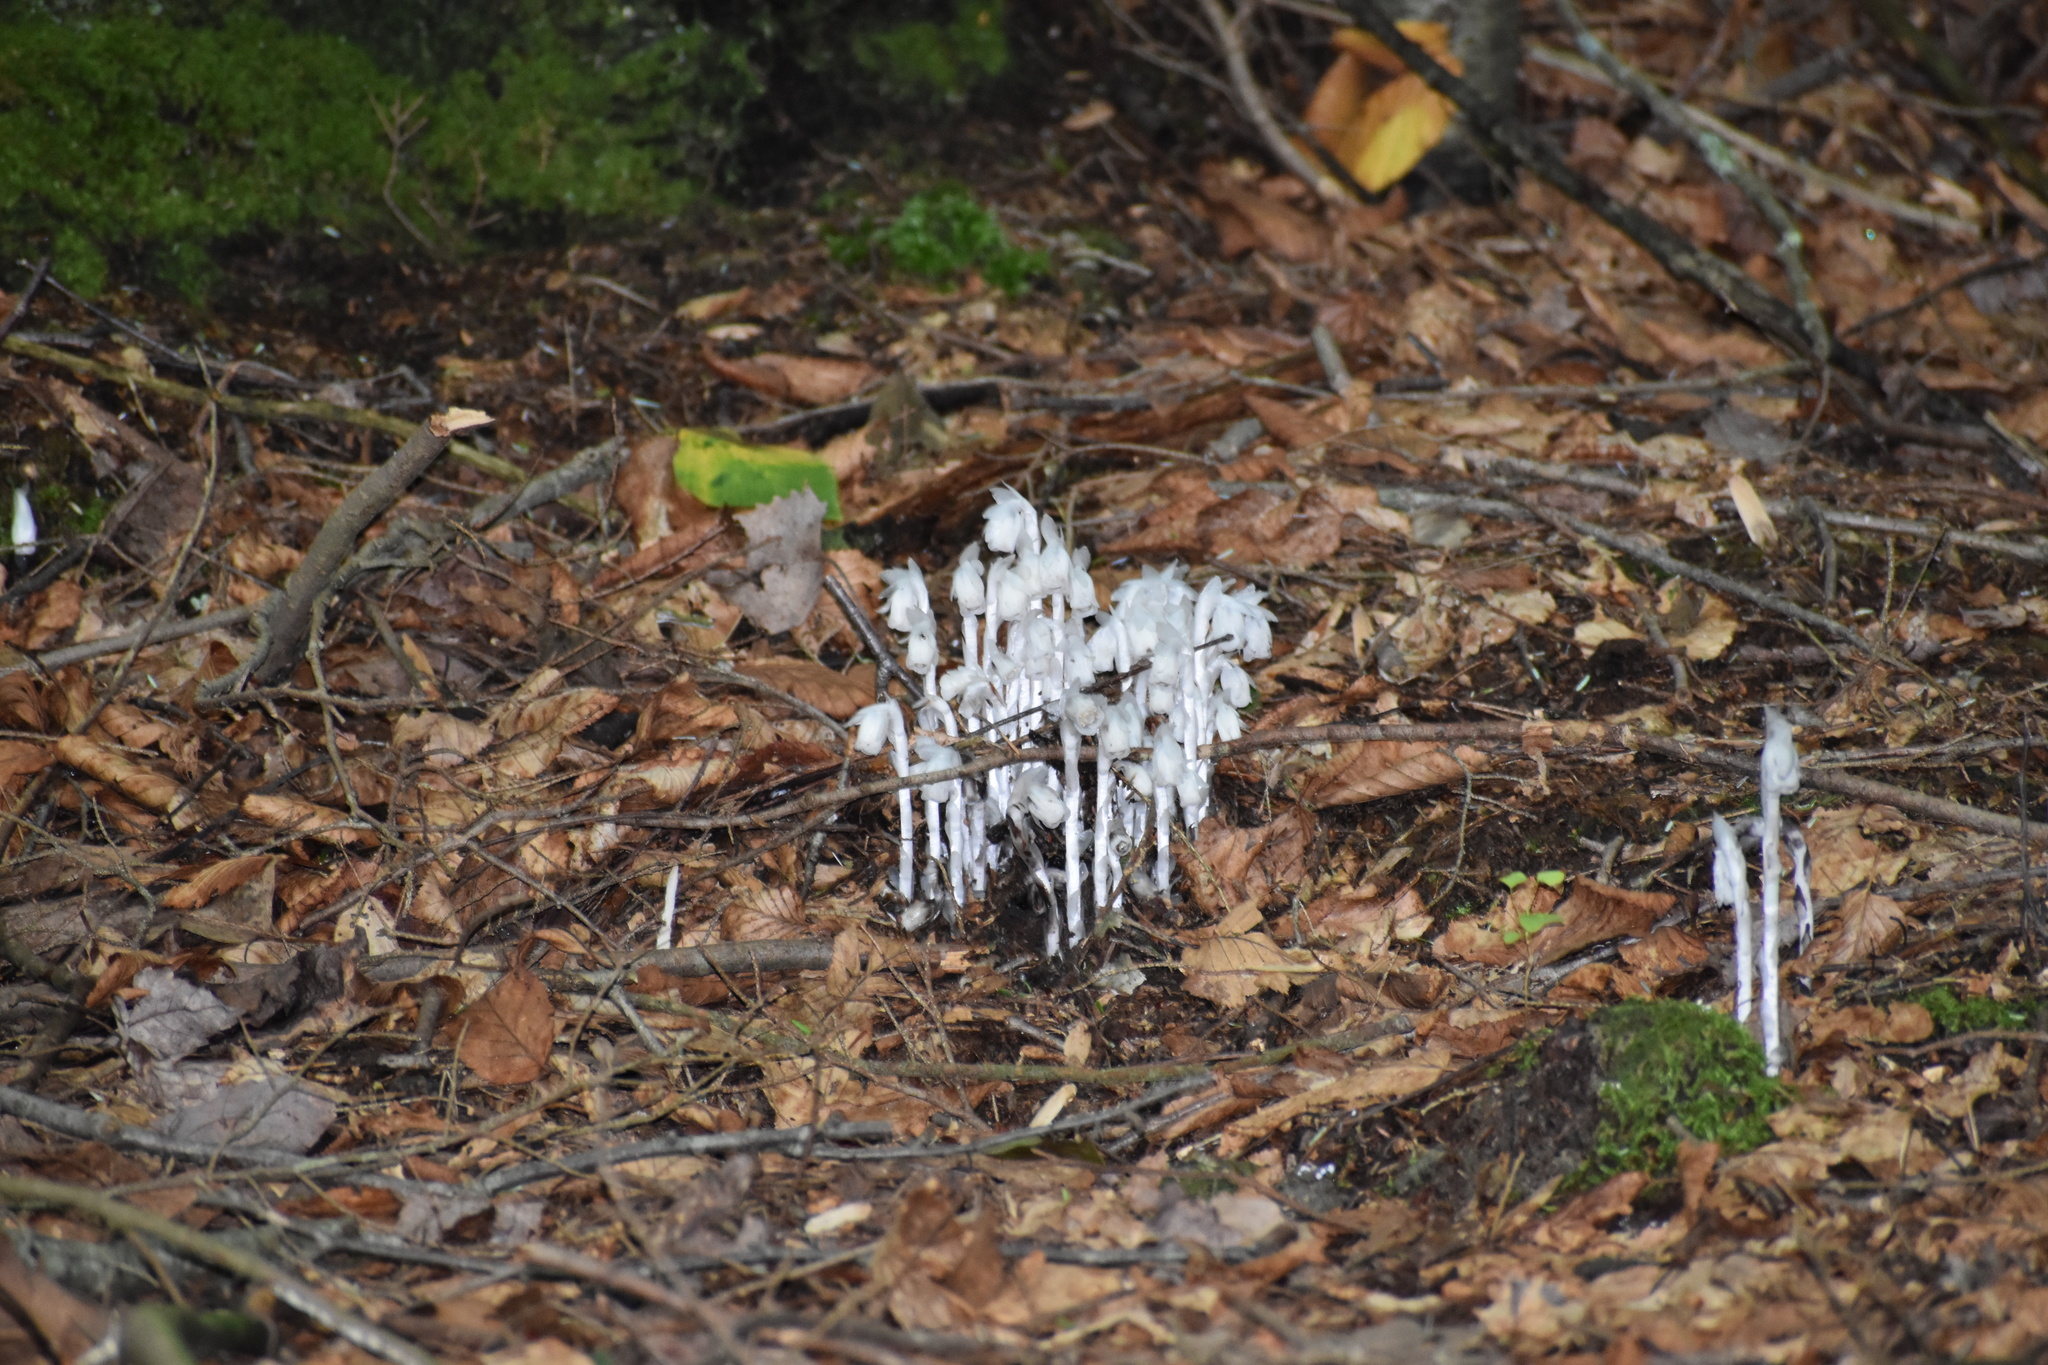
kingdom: Plantae
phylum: Tracheophyta
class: Magnoliopsida
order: Ericales
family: Ericaceae
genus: Monotropa
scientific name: Monotropa uniflora
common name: Convulsion root
